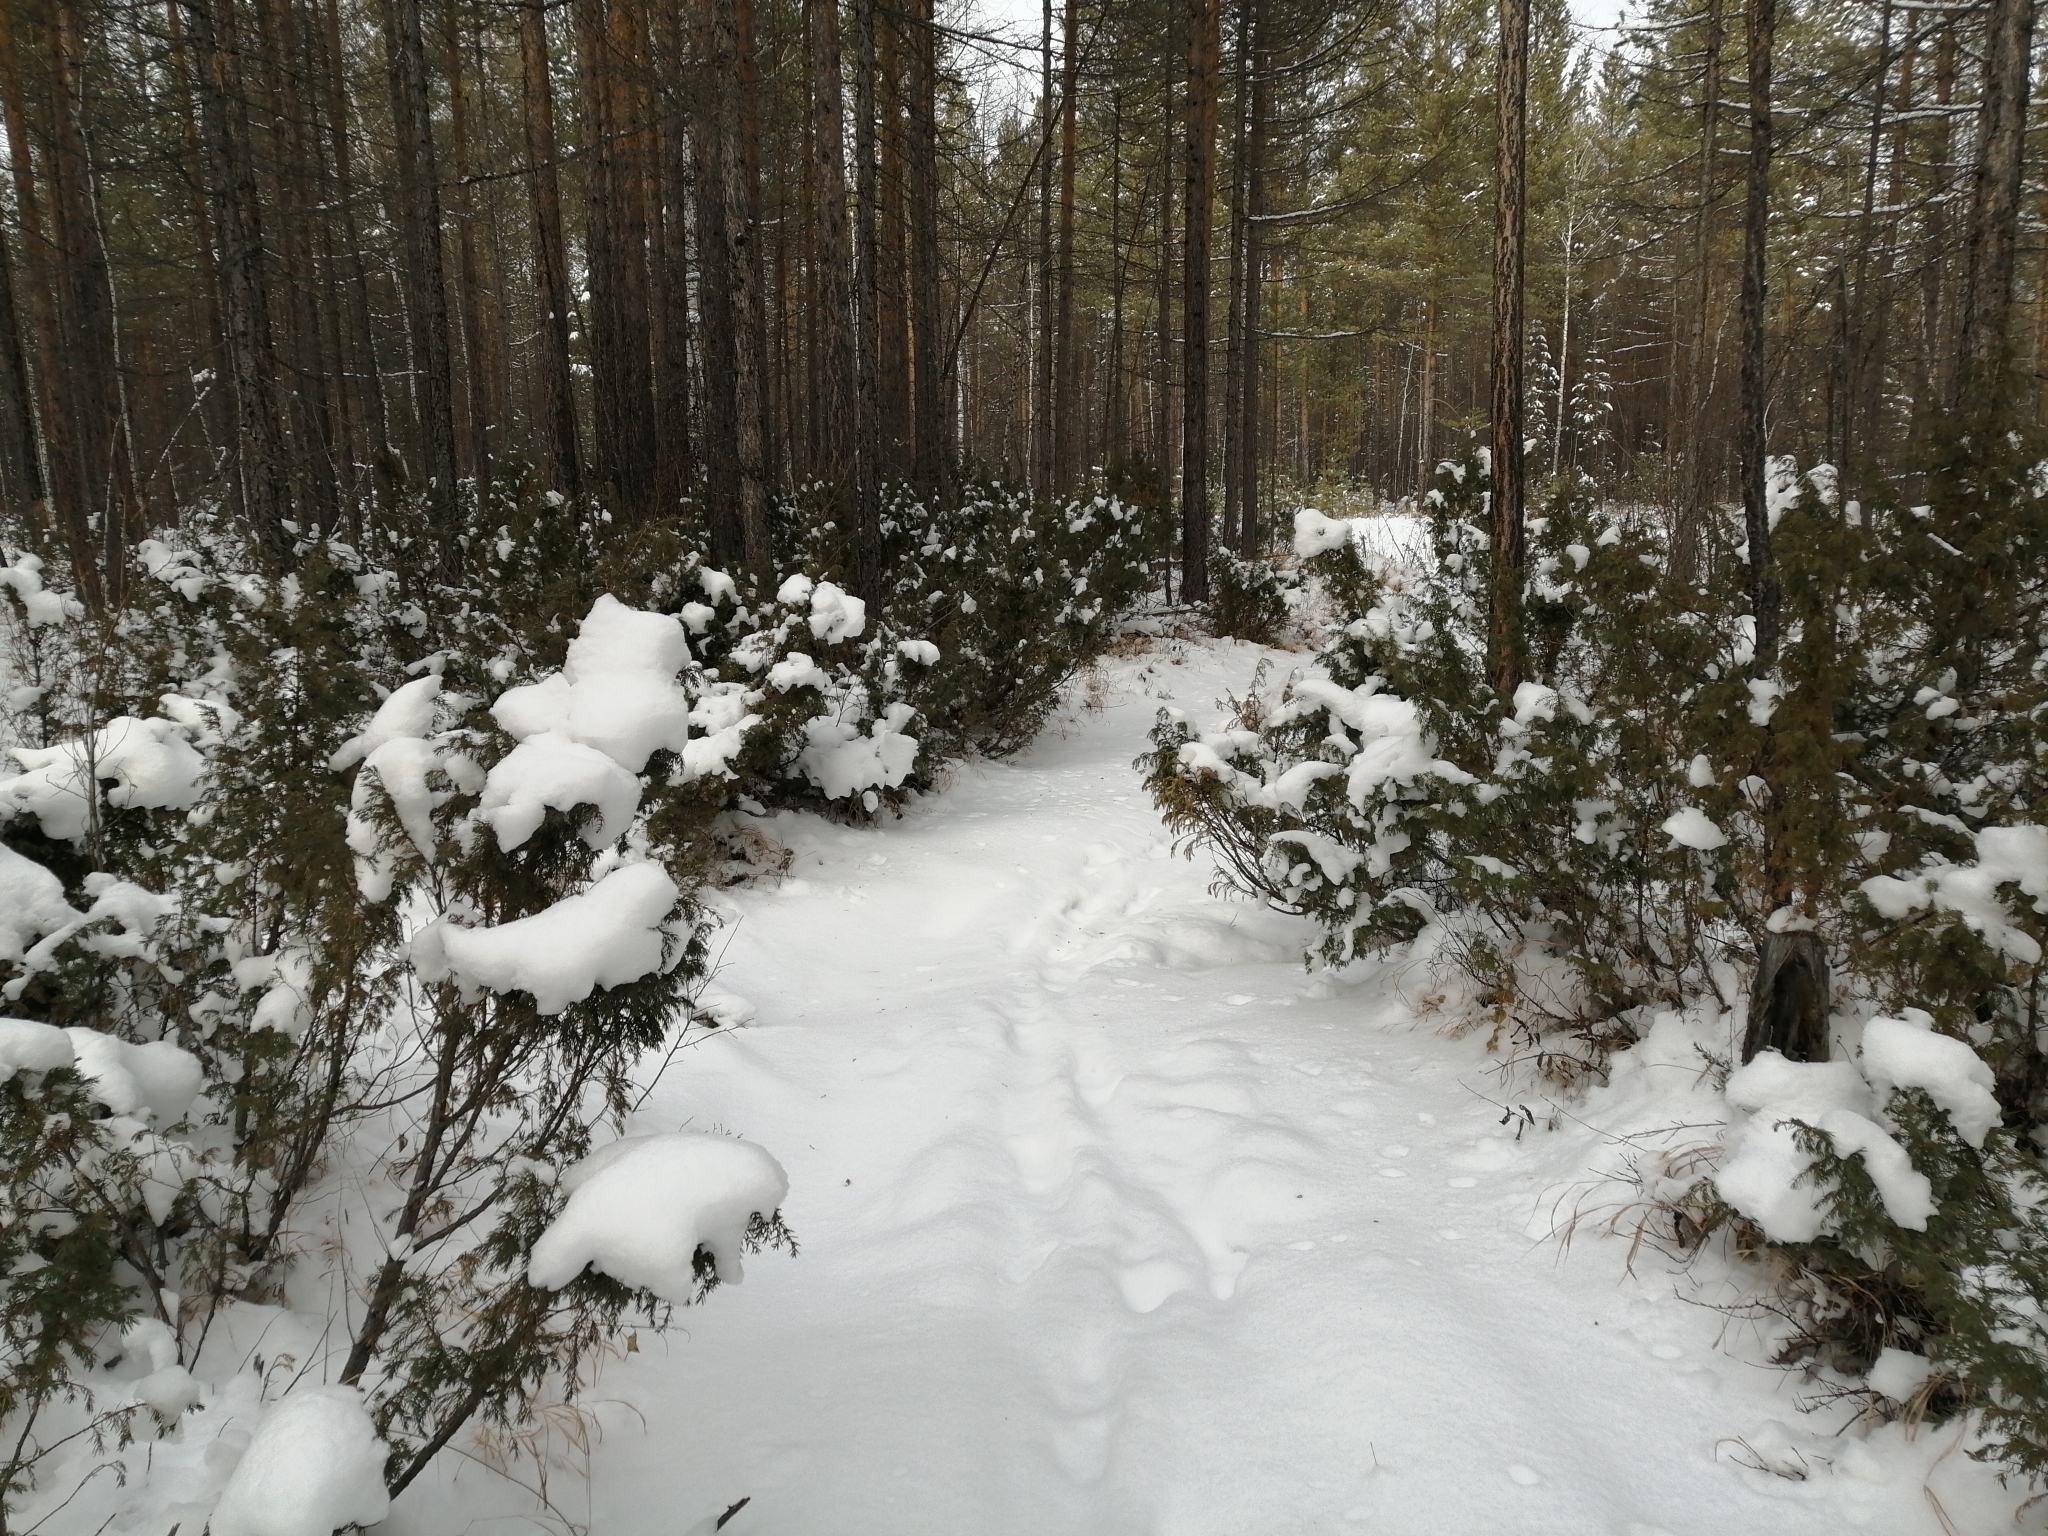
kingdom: Plantae
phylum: Tracheophyta
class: Pinopsida
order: Pinales
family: Cupressaceae
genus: Juniperus
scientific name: Juniperus communis
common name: Common juniper
